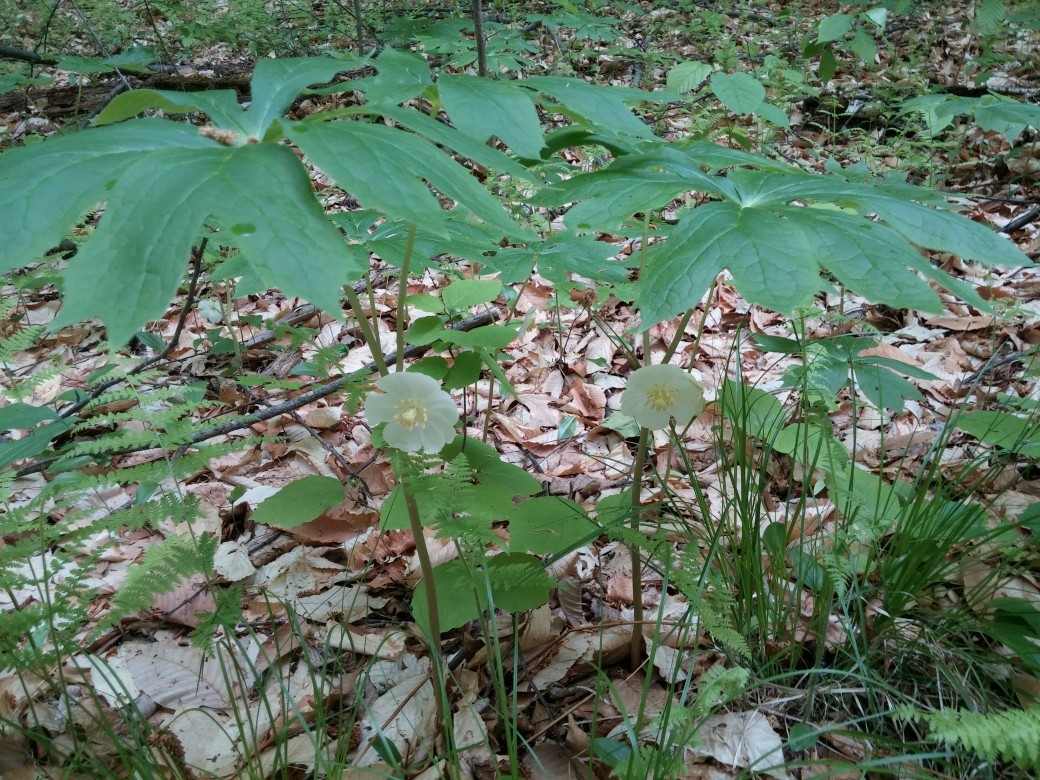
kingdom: Plantae
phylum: Tracheophyta
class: Magnoliopsida
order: Ranunculales
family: Berberidaceae
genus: Podophyllum
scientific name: Podophyllum peltatum
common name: Wild mandrake
